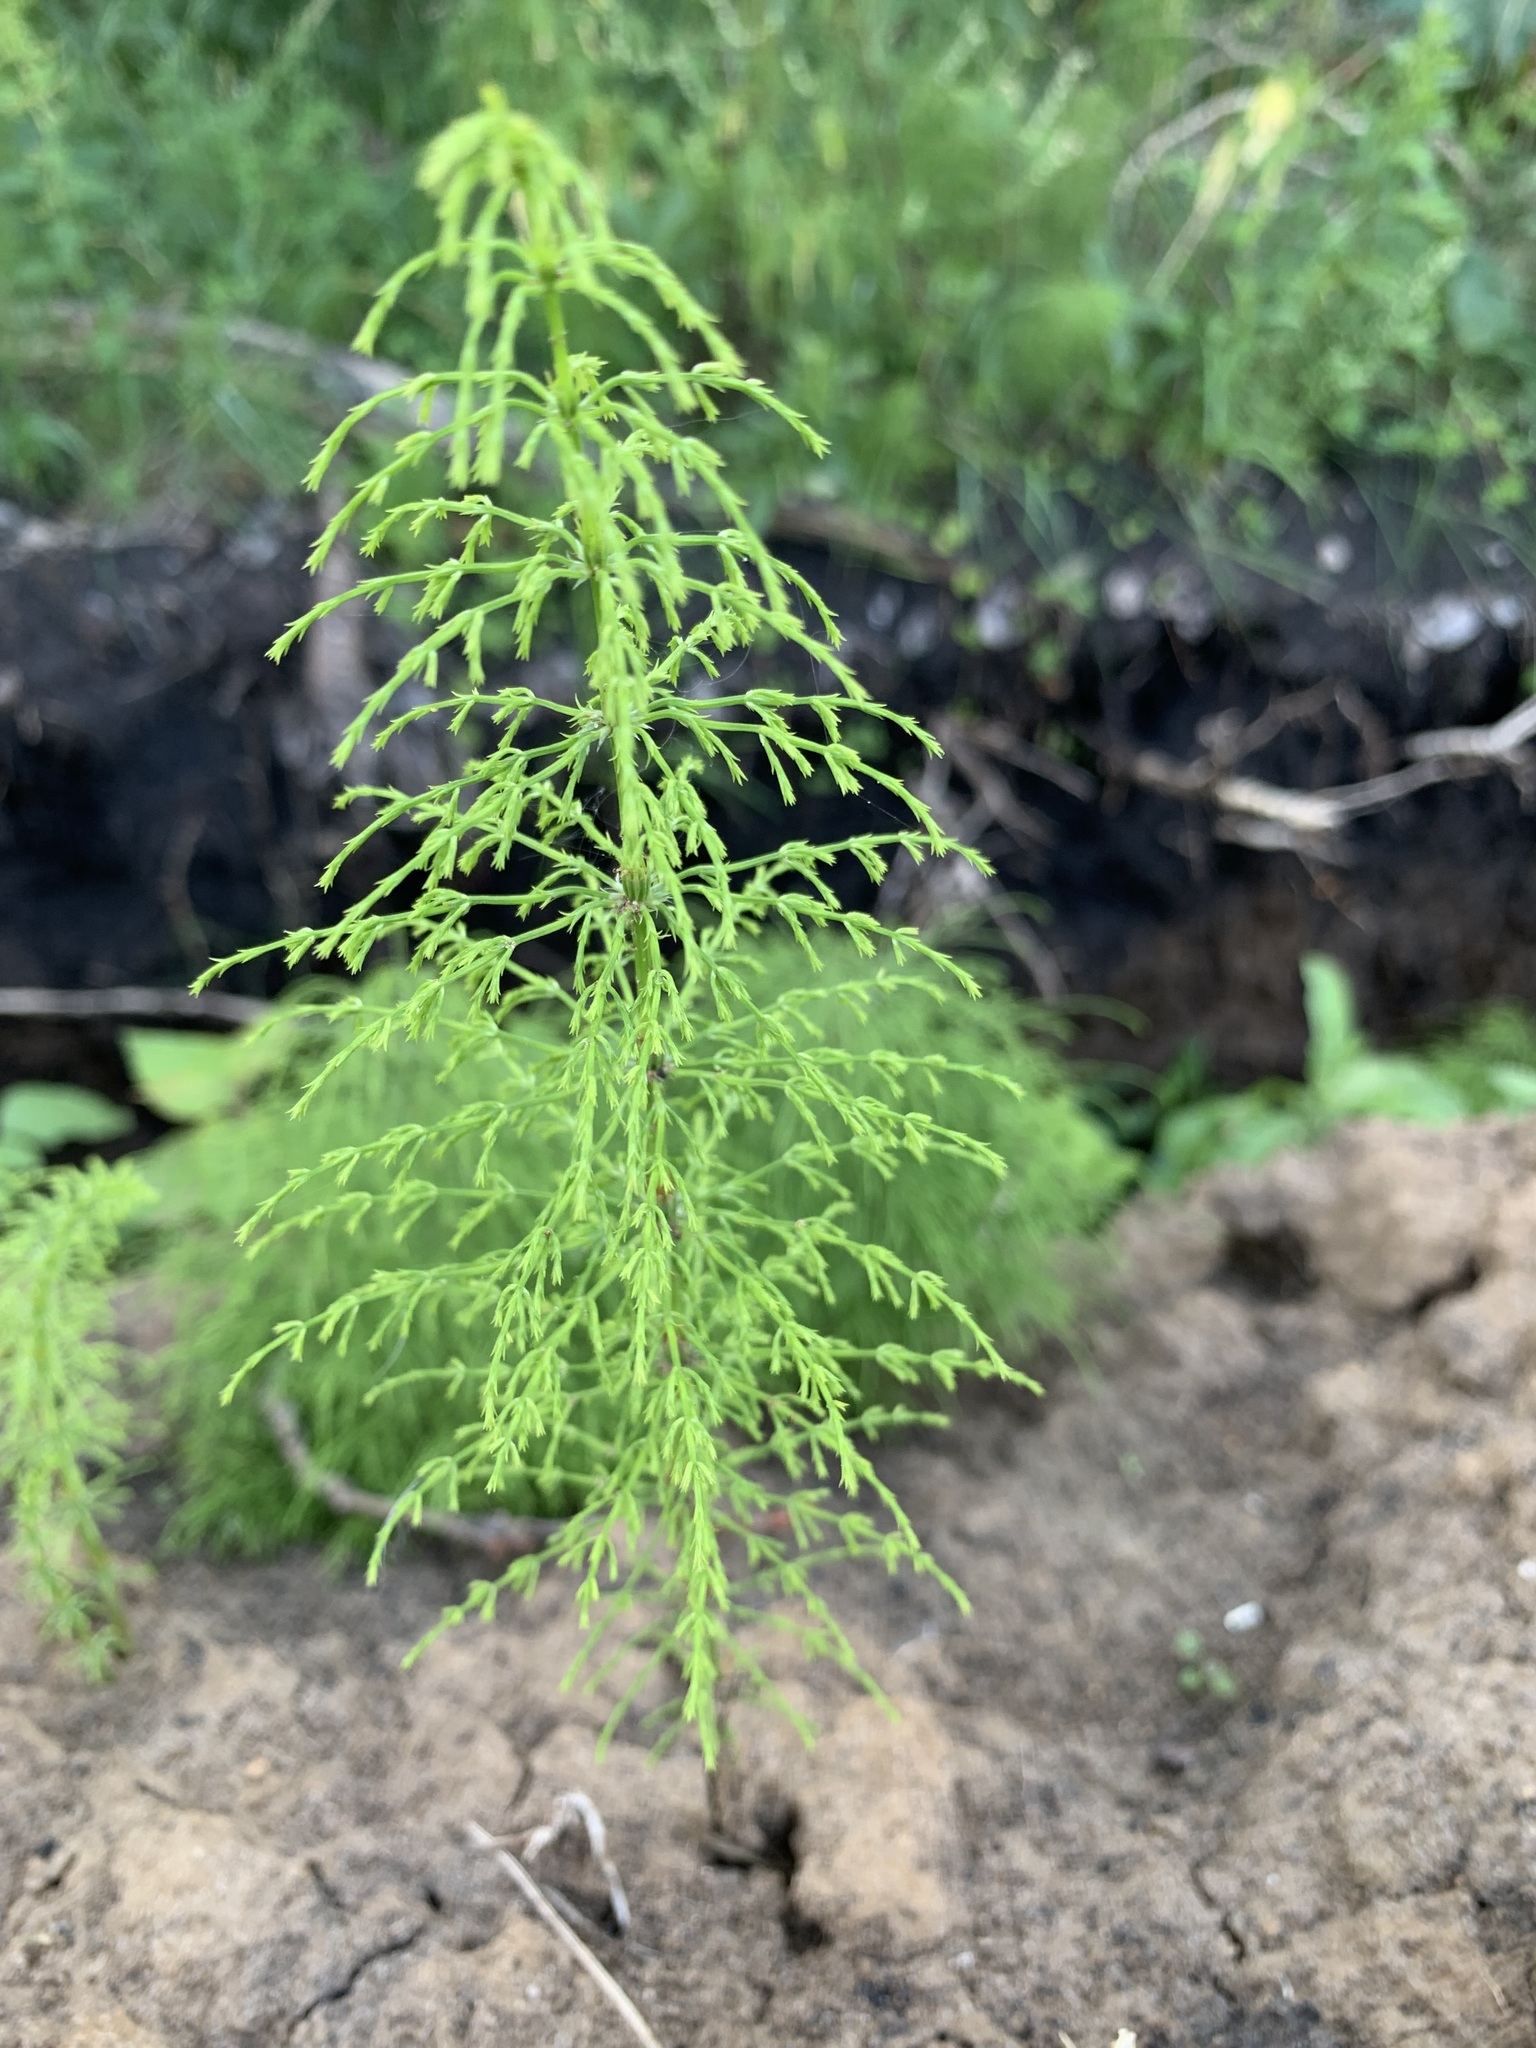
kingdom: Plantae
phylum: Tracheophyta
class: Polypodiopsida
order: Equisetales
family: Equisetaceae
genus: Equisetum
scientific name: Equisetum sylvaticum
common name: Wood horsetail
